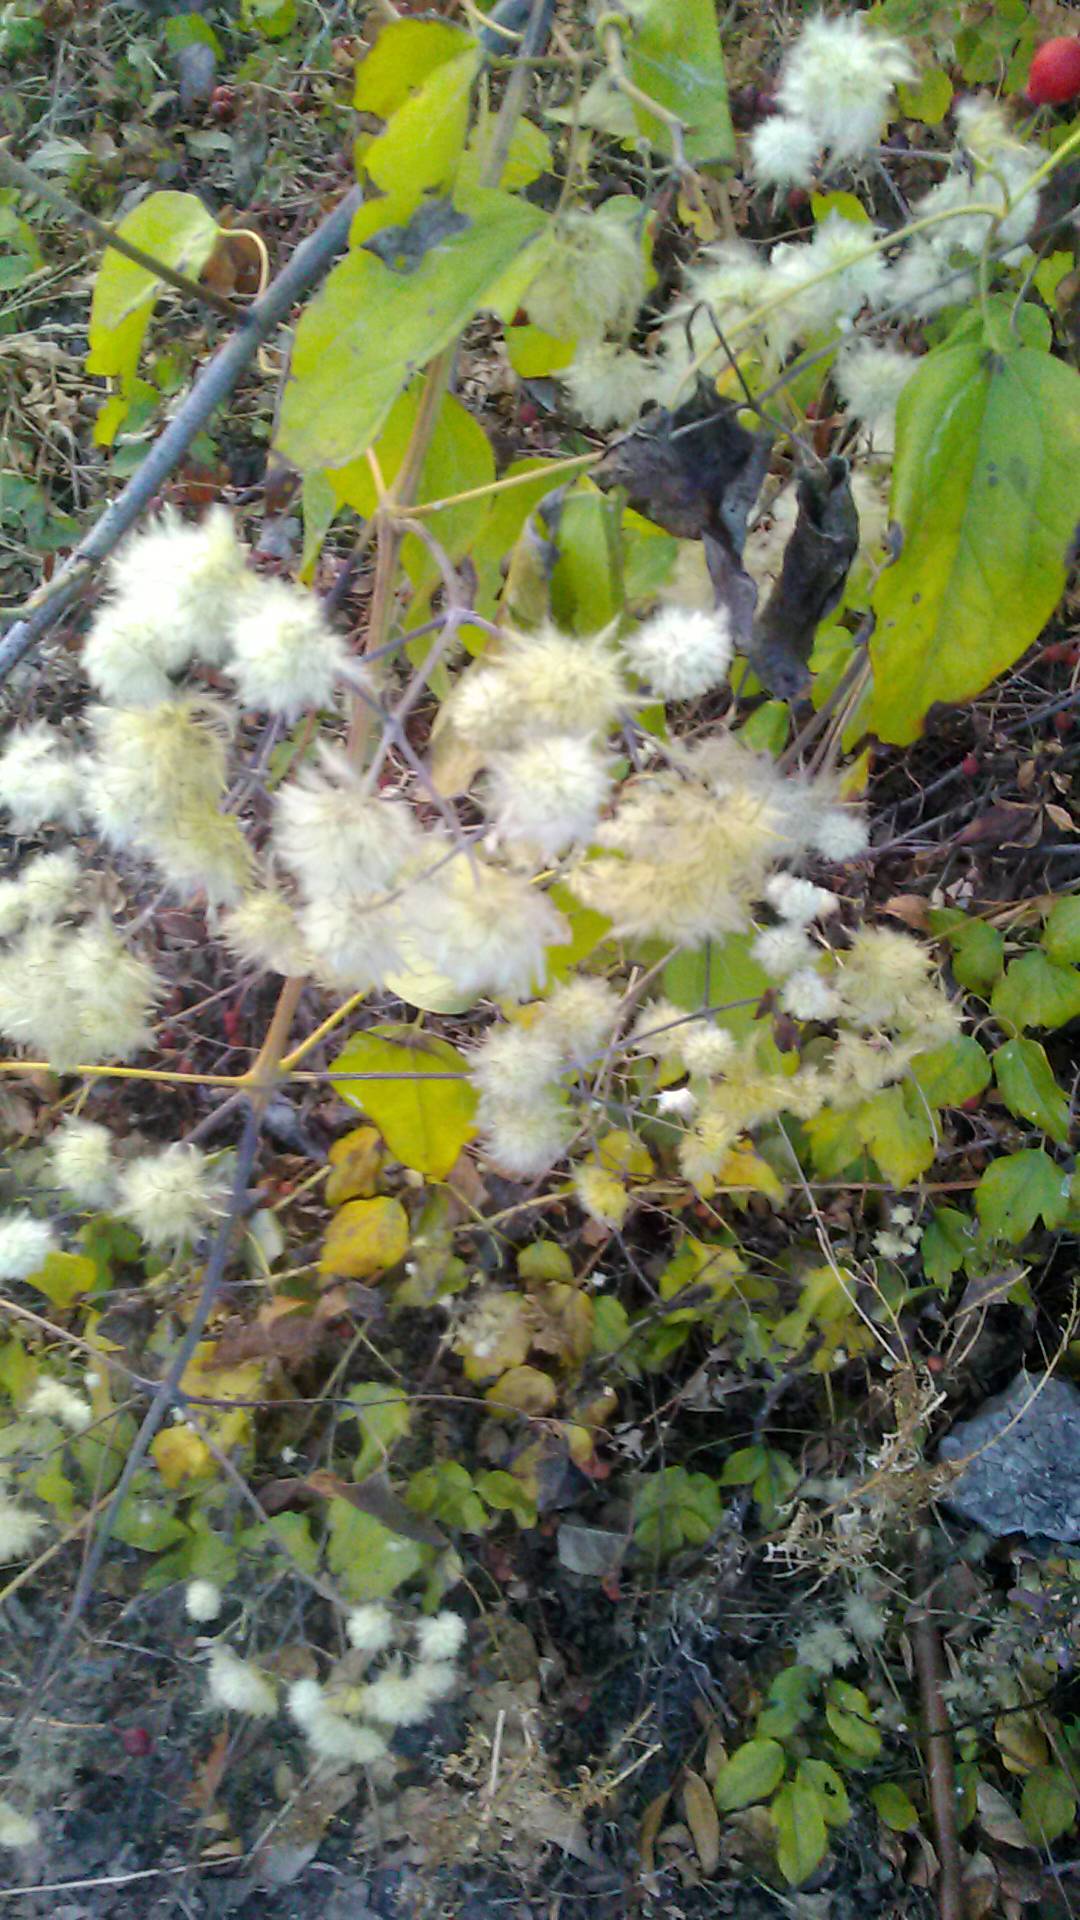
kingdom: Plantae
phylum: Tracheophyta
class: Magnoliopsida
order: Ranunculales
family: Ranunculaceae
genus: Clematis
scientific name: Clematis vitalba
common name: Evergreen clematis
